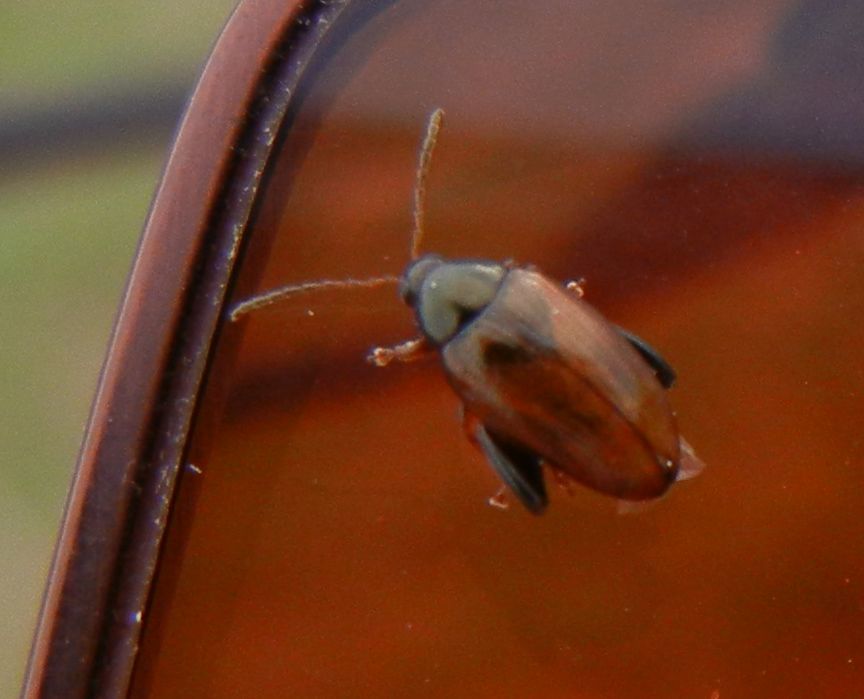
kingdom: Animalia
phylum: Arthropoda
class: Insecta
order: Coleoptera
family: Chrysomelidae
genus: Psylliodes
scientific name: Psylliodes chrysocephalus
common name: Cabbage-stem flea beetle
